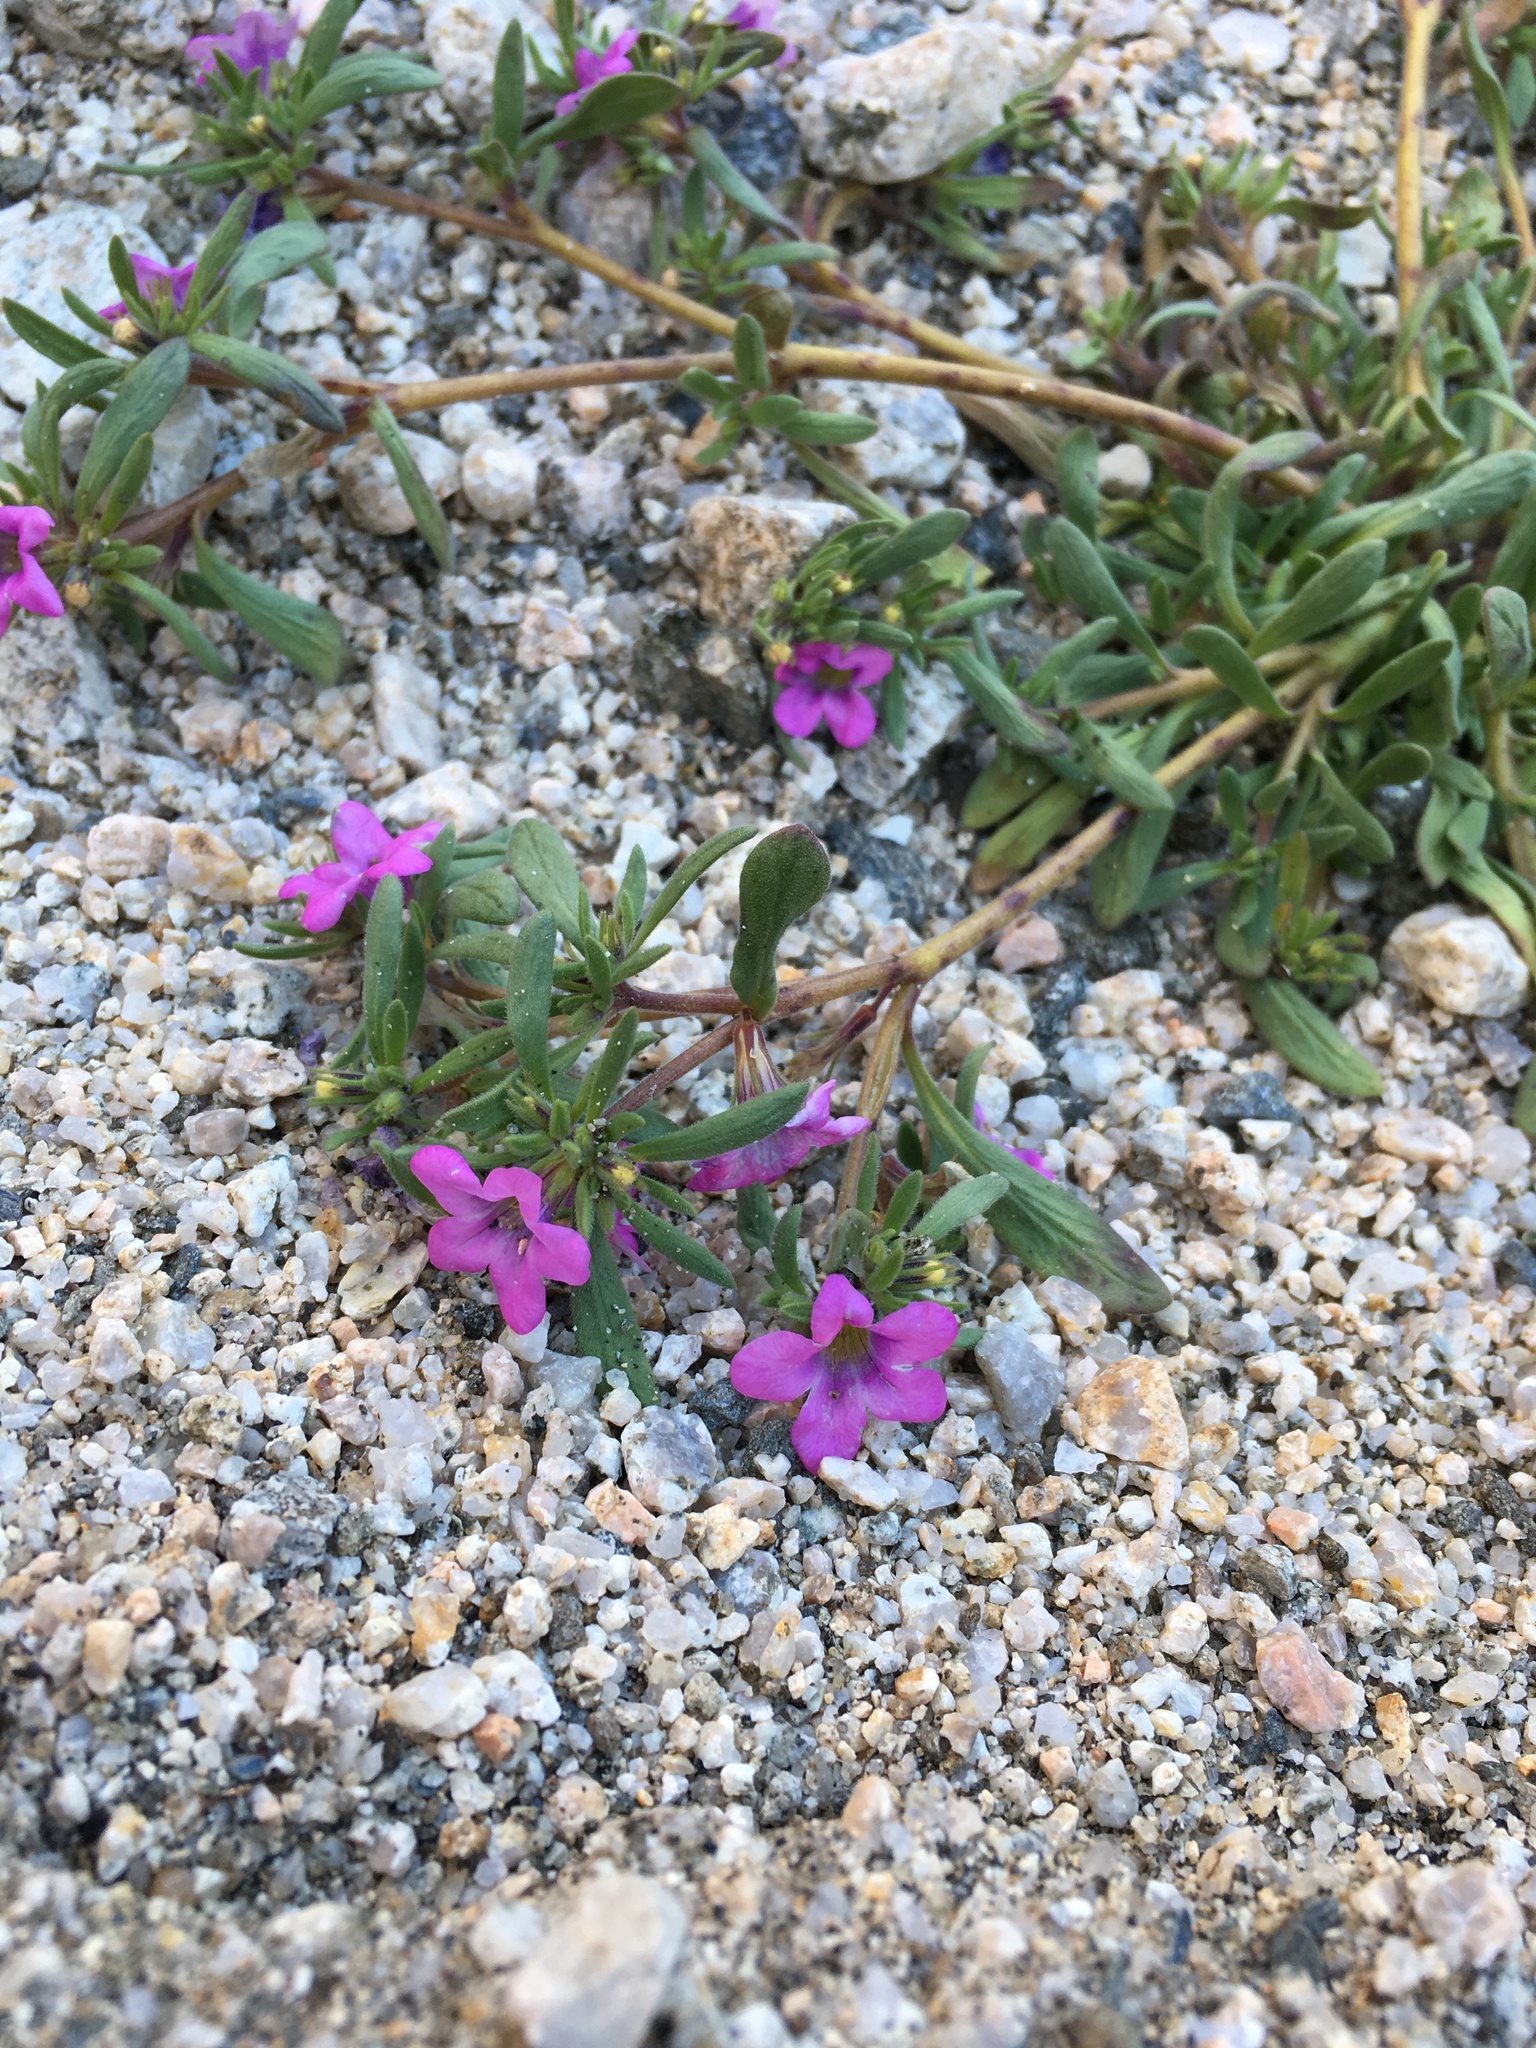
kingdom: Plantae
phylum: Tracheophyta
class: Magnoliopsida
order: Boraginales
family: Namaceae
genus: Nama
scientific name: Nama demissa
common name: Leafy nama
